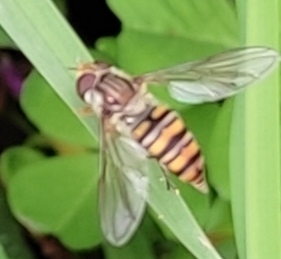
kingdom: Animalia
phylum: Arthropoda
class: Insecta
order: Diptera
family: Syrphidae
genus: Episyrphus
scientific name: Episyrphus balteatus
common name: Marmalade hoverfly
